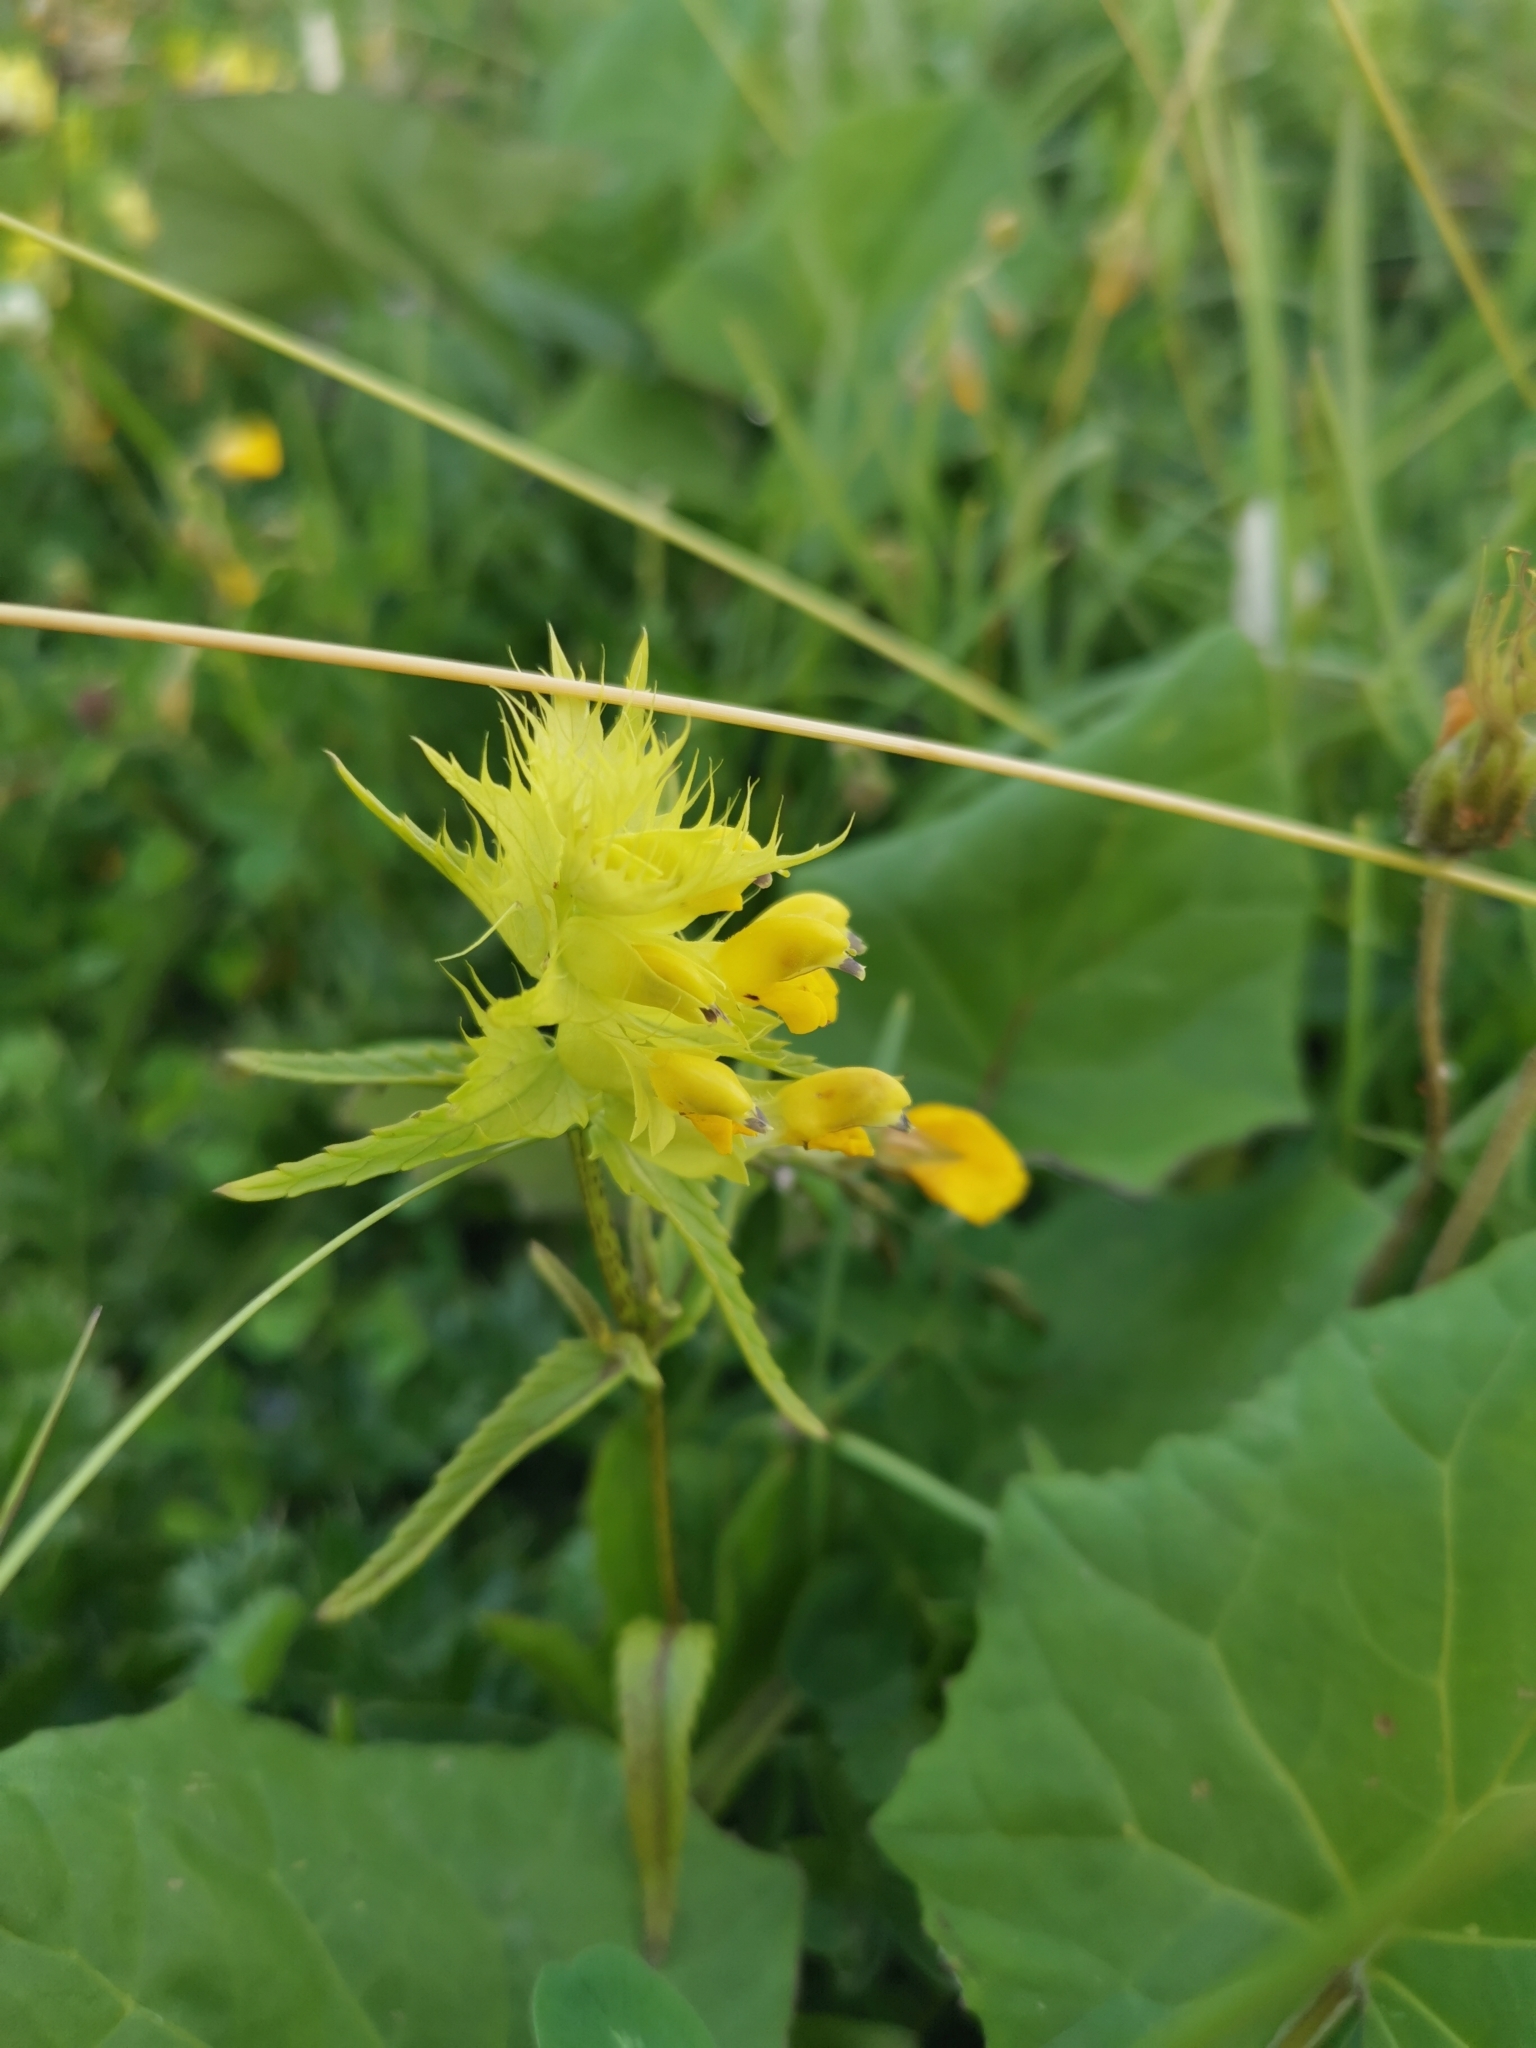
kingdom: Plantae
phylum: Tracheophyta
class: Magnoliopsida
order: Lamiales
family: Orobanchaceae
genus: Rhinanthus
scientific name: Rhinanthus glacialis
